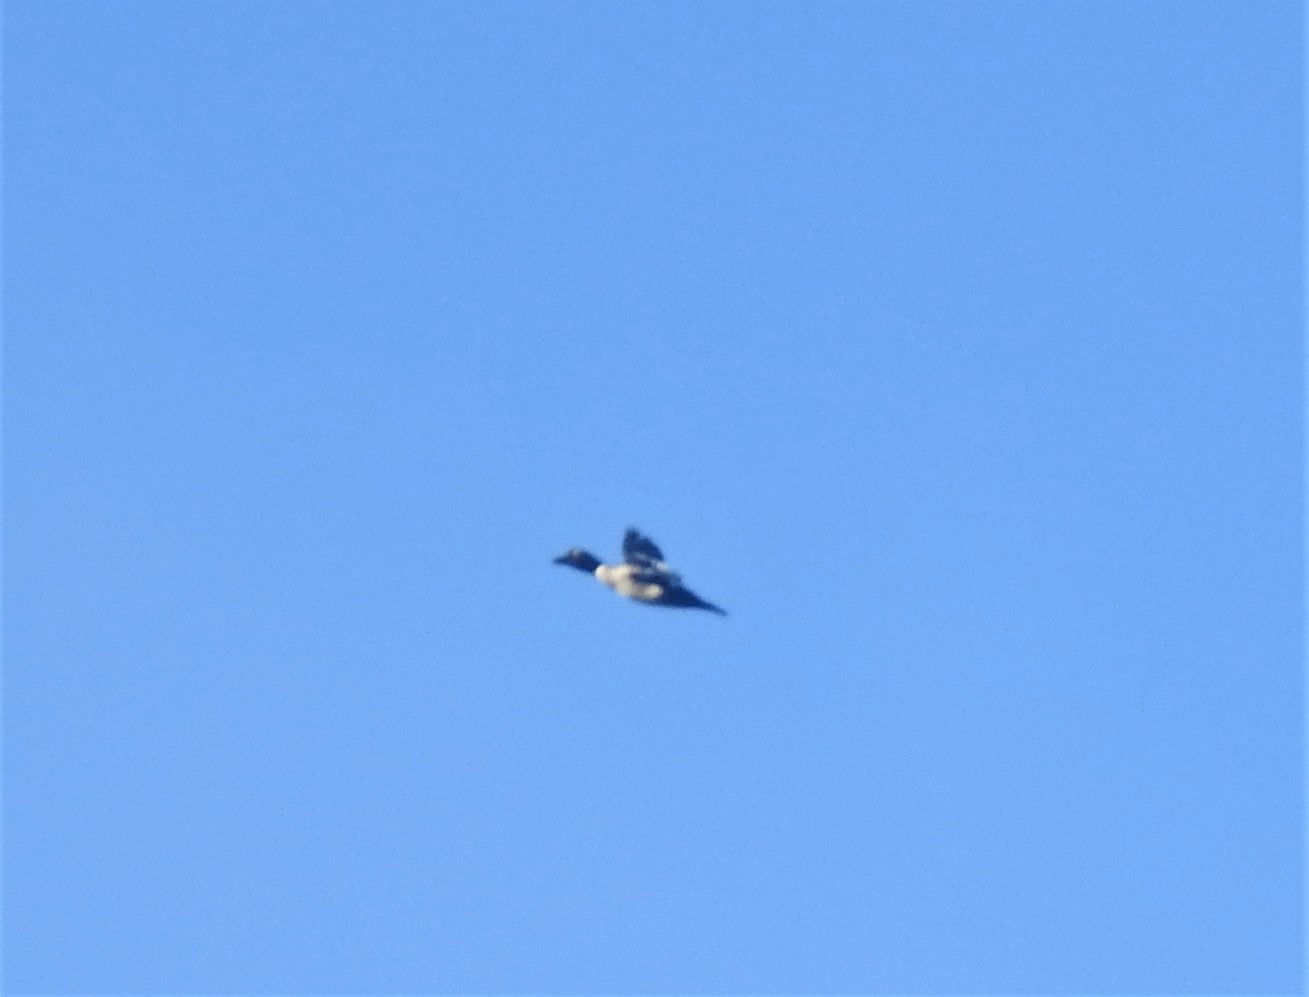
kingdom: Animalia
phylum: Chordata
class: Aves
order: Anseriformes
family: Anatidae
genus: Bucephala
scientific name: Bucephala clangula
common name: Common goldeneye
